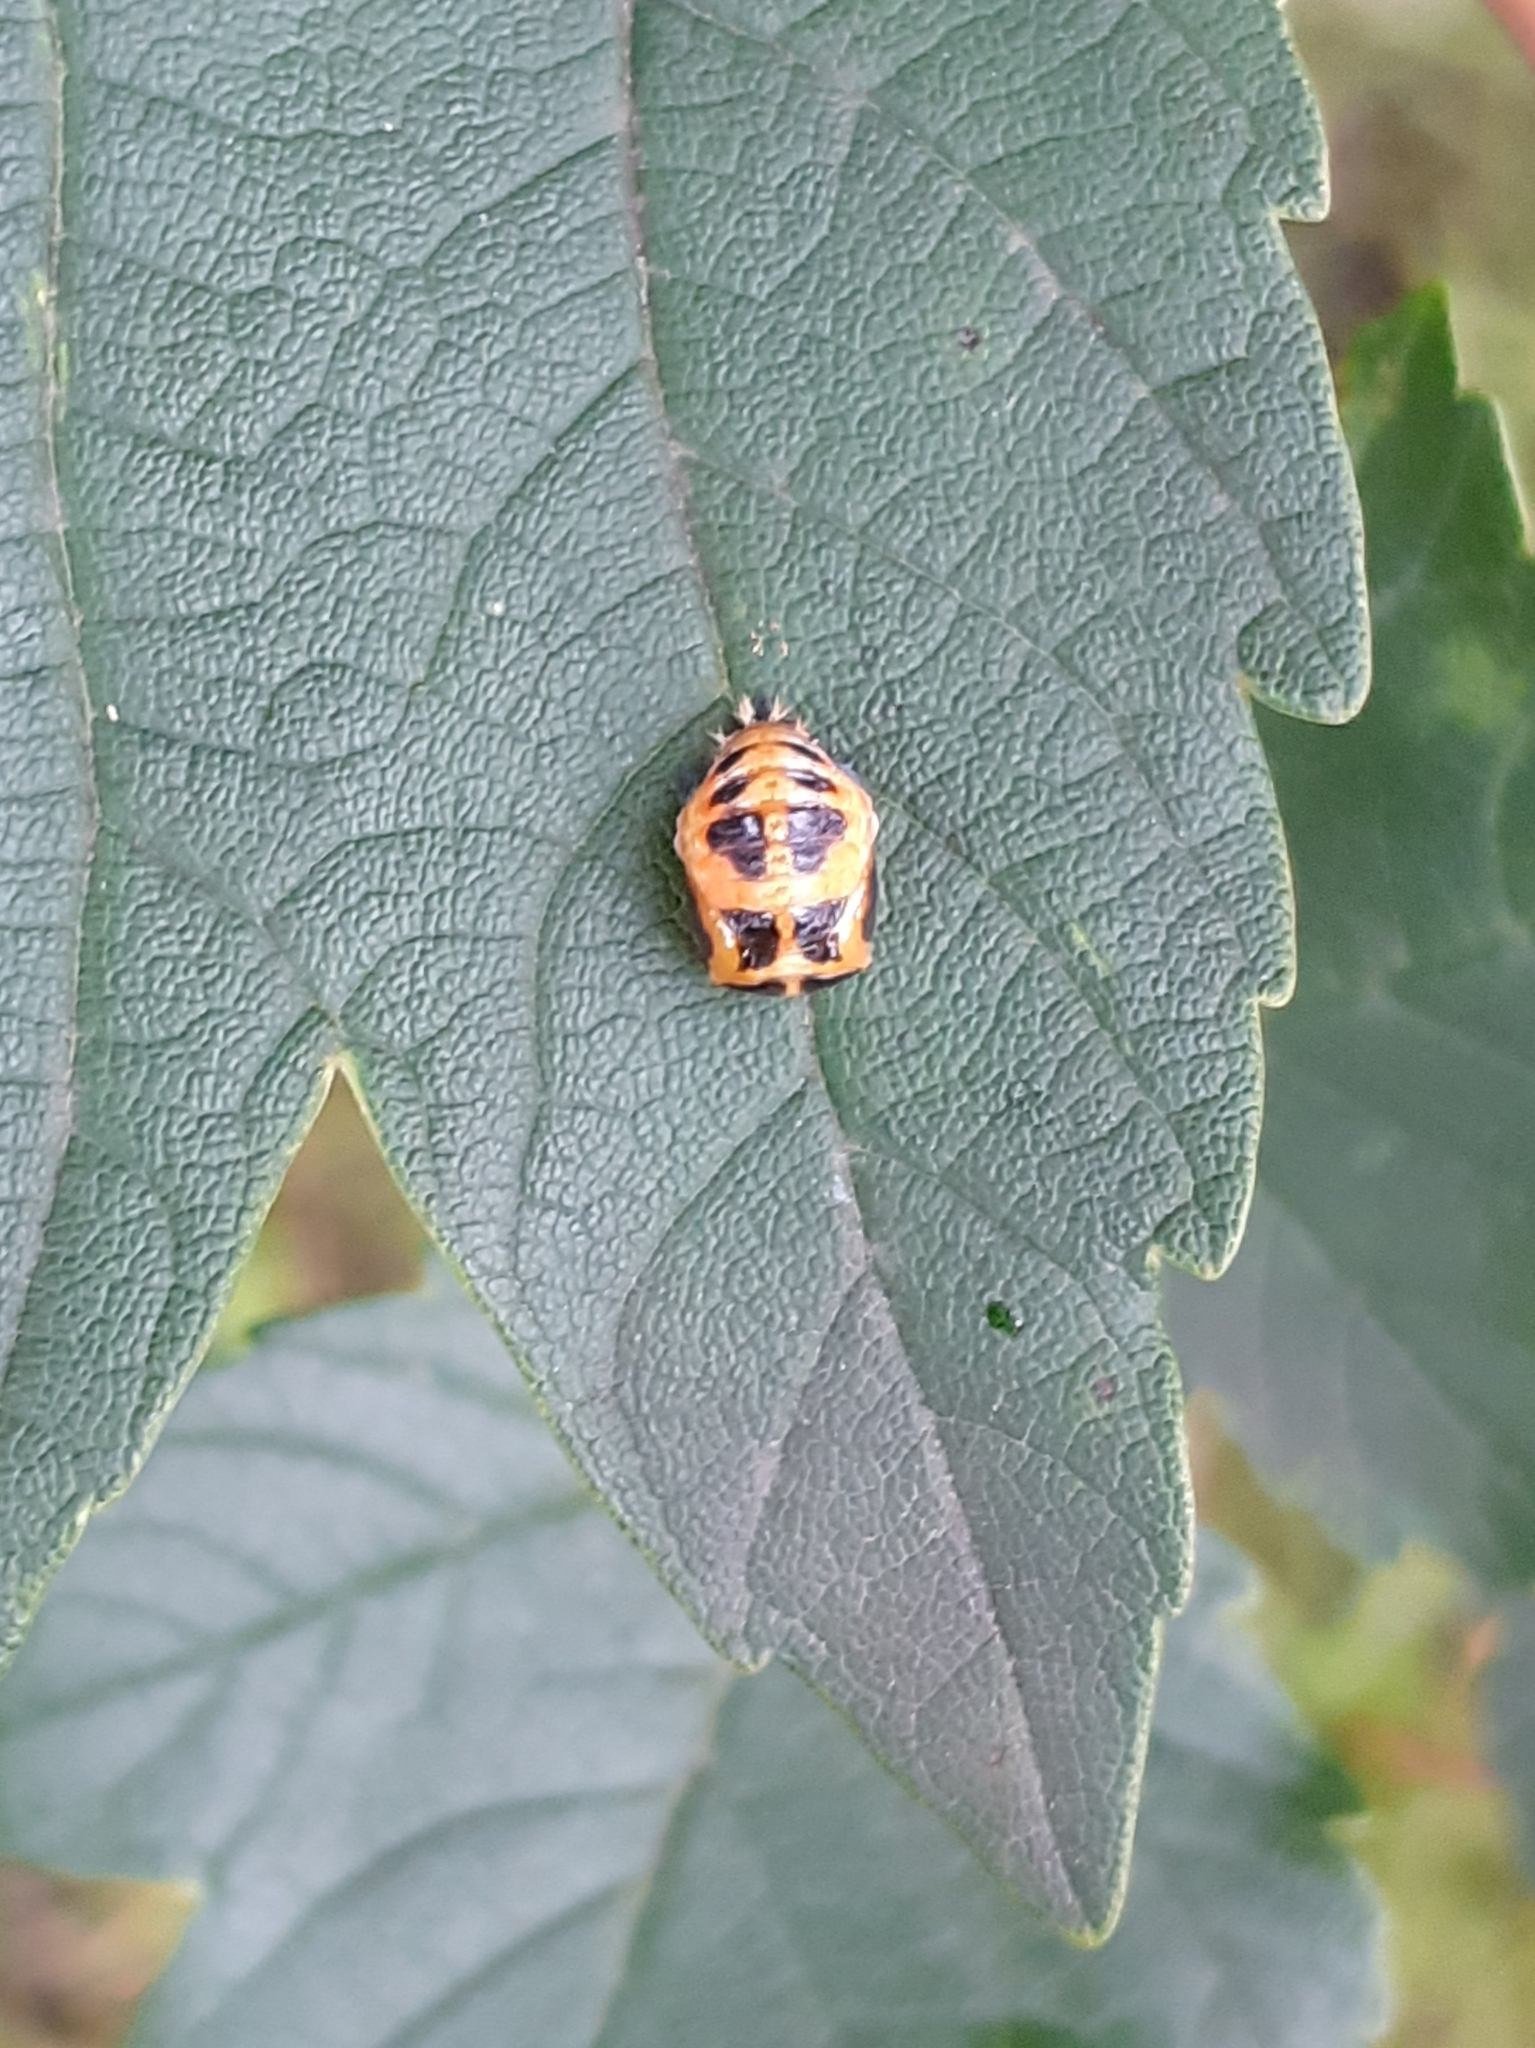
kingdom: Animalia
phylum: Arthropoda
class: Insecta
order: Coleoptera
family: Coccinellidae
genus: Harmonia
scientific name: Harmonia axyridis
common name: Harlequin ladybird
